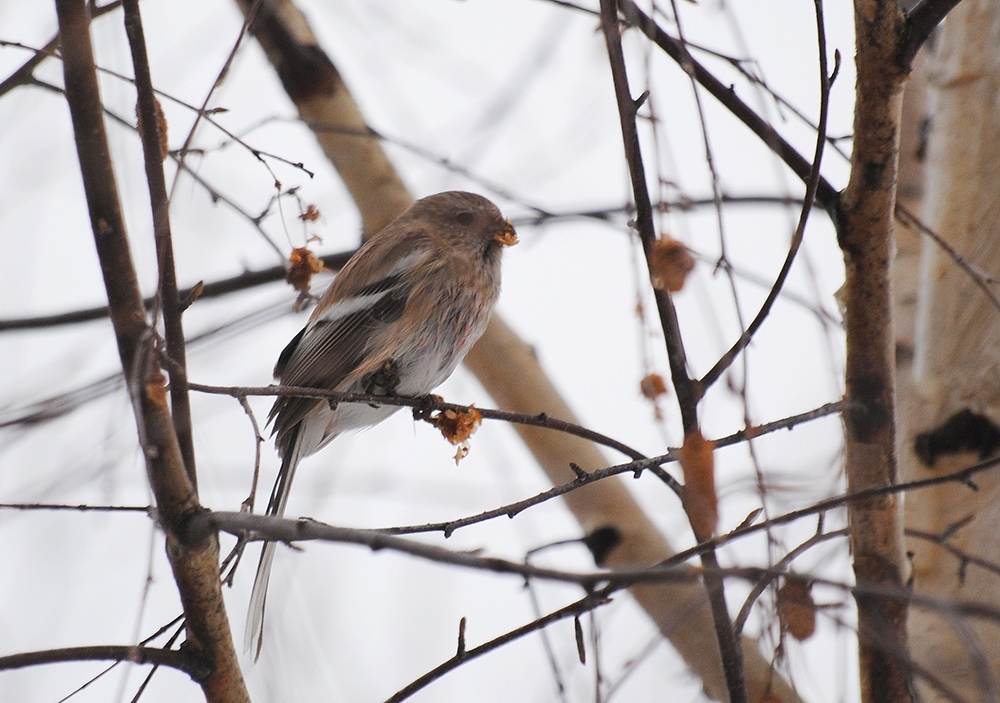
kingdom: Animalia
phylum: Chordata
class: Aves
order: Passeriformes
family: Fringillidae
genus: Carpodacus
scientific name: Carpodacus sibiricus
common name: Long-tailed rosefinch
